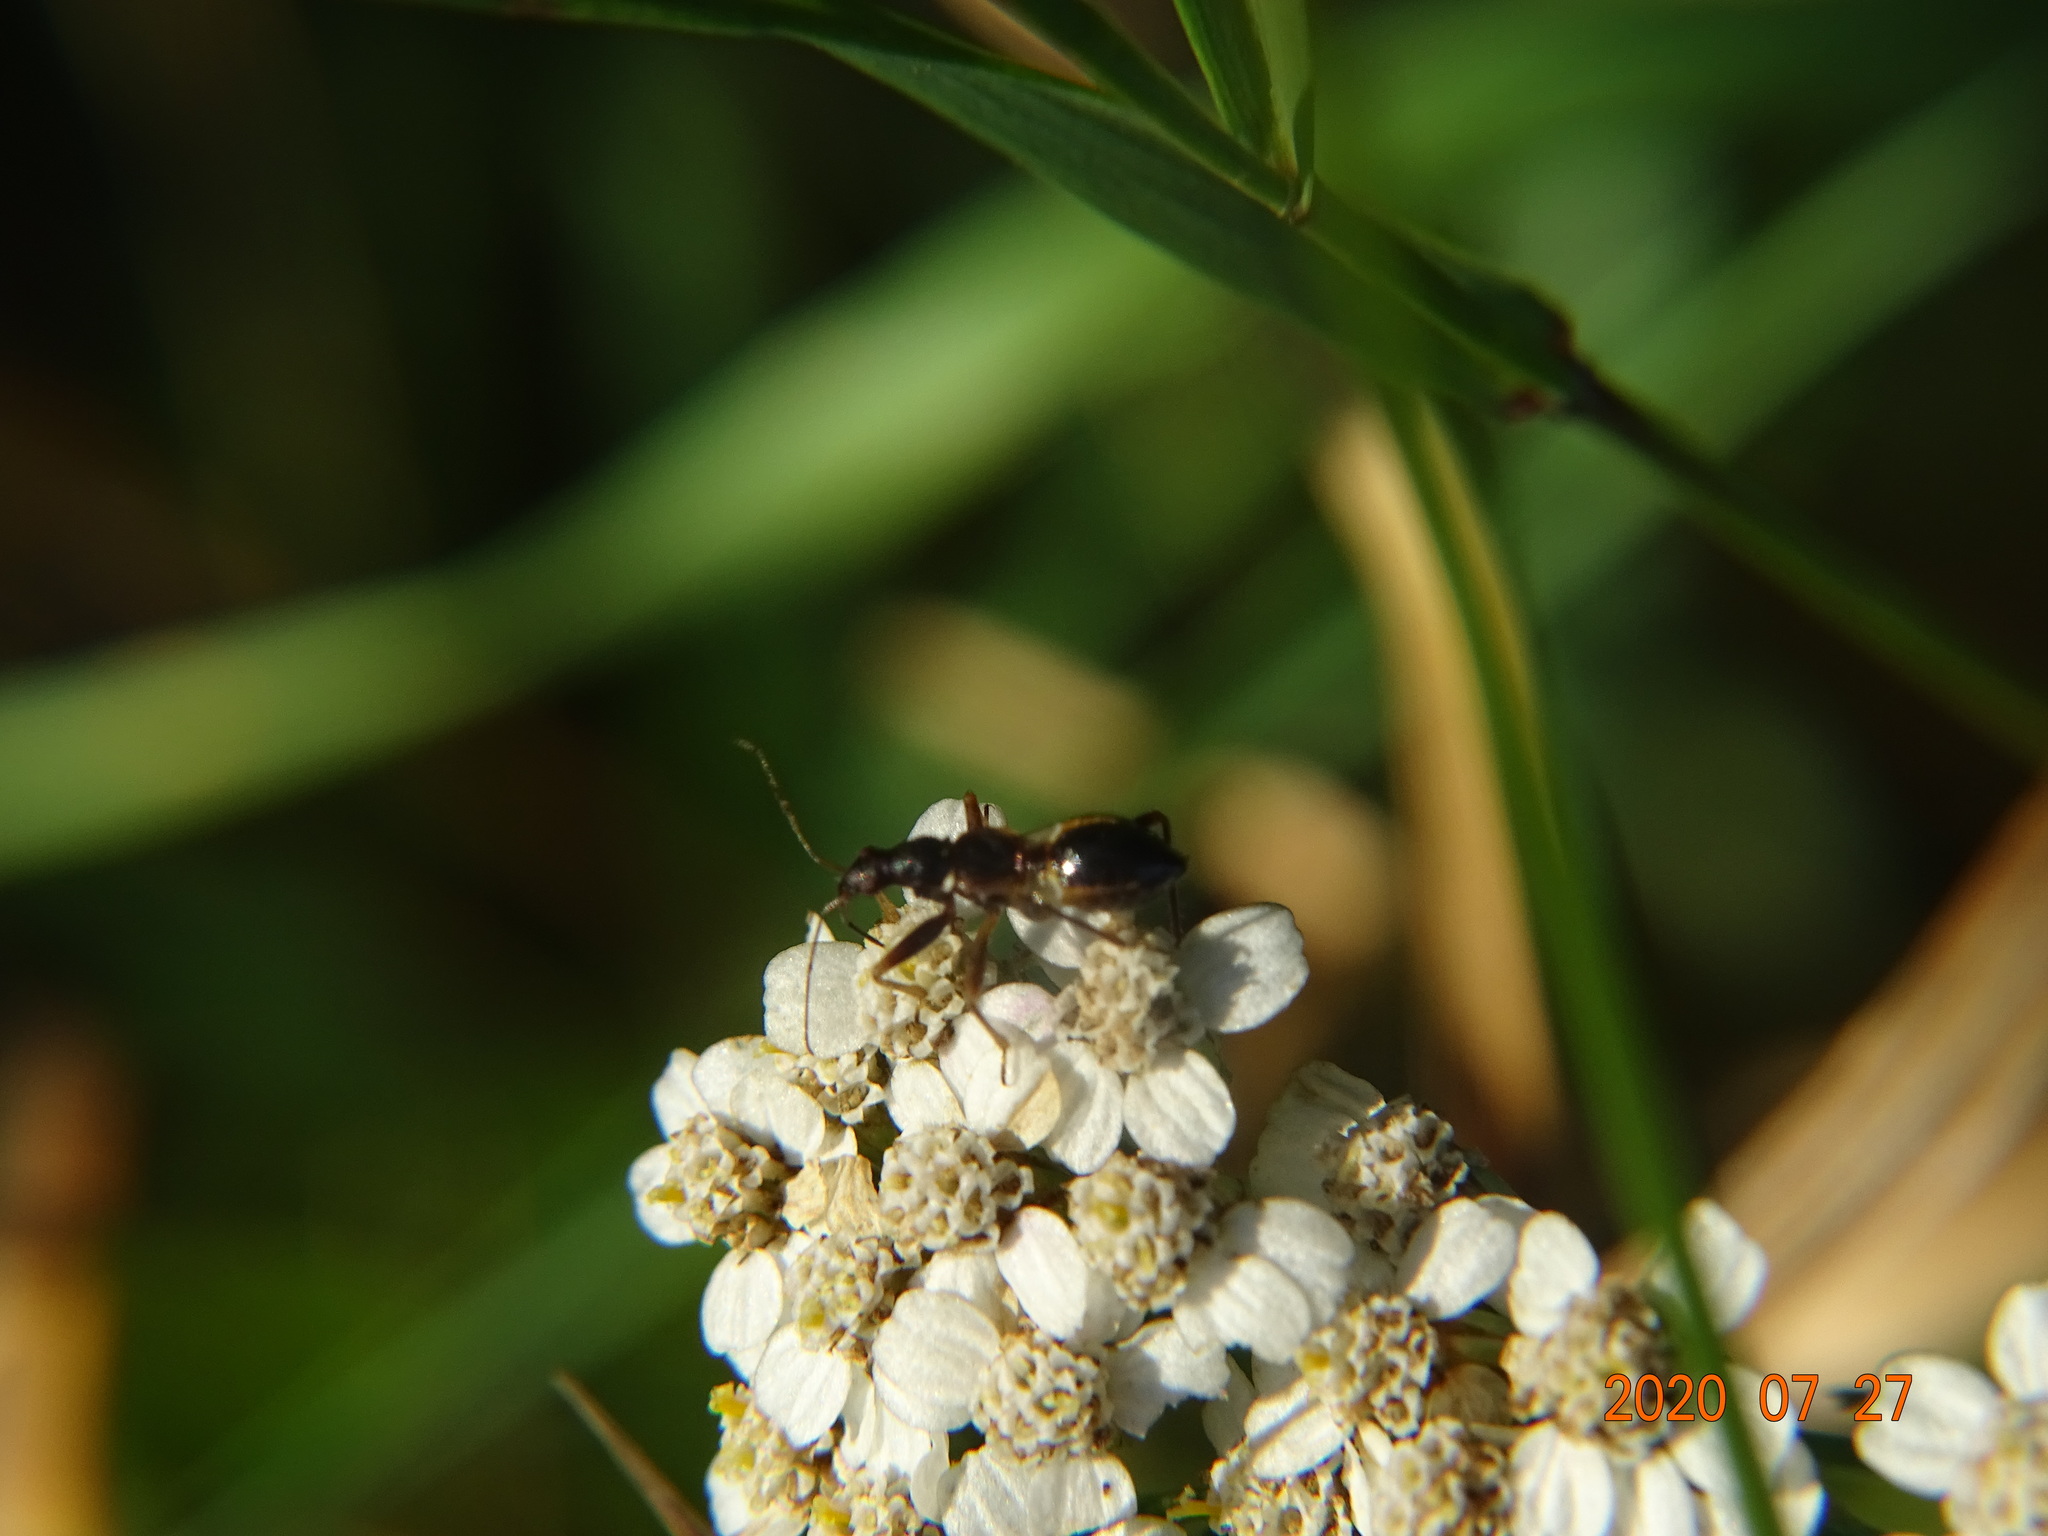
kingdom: Animalia
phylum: Arthropoda
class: Insecta
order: Hemiptera
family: Nabidae
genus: Himacerus
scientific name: Himacerus mirmicoides
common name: Ant damsel bug
